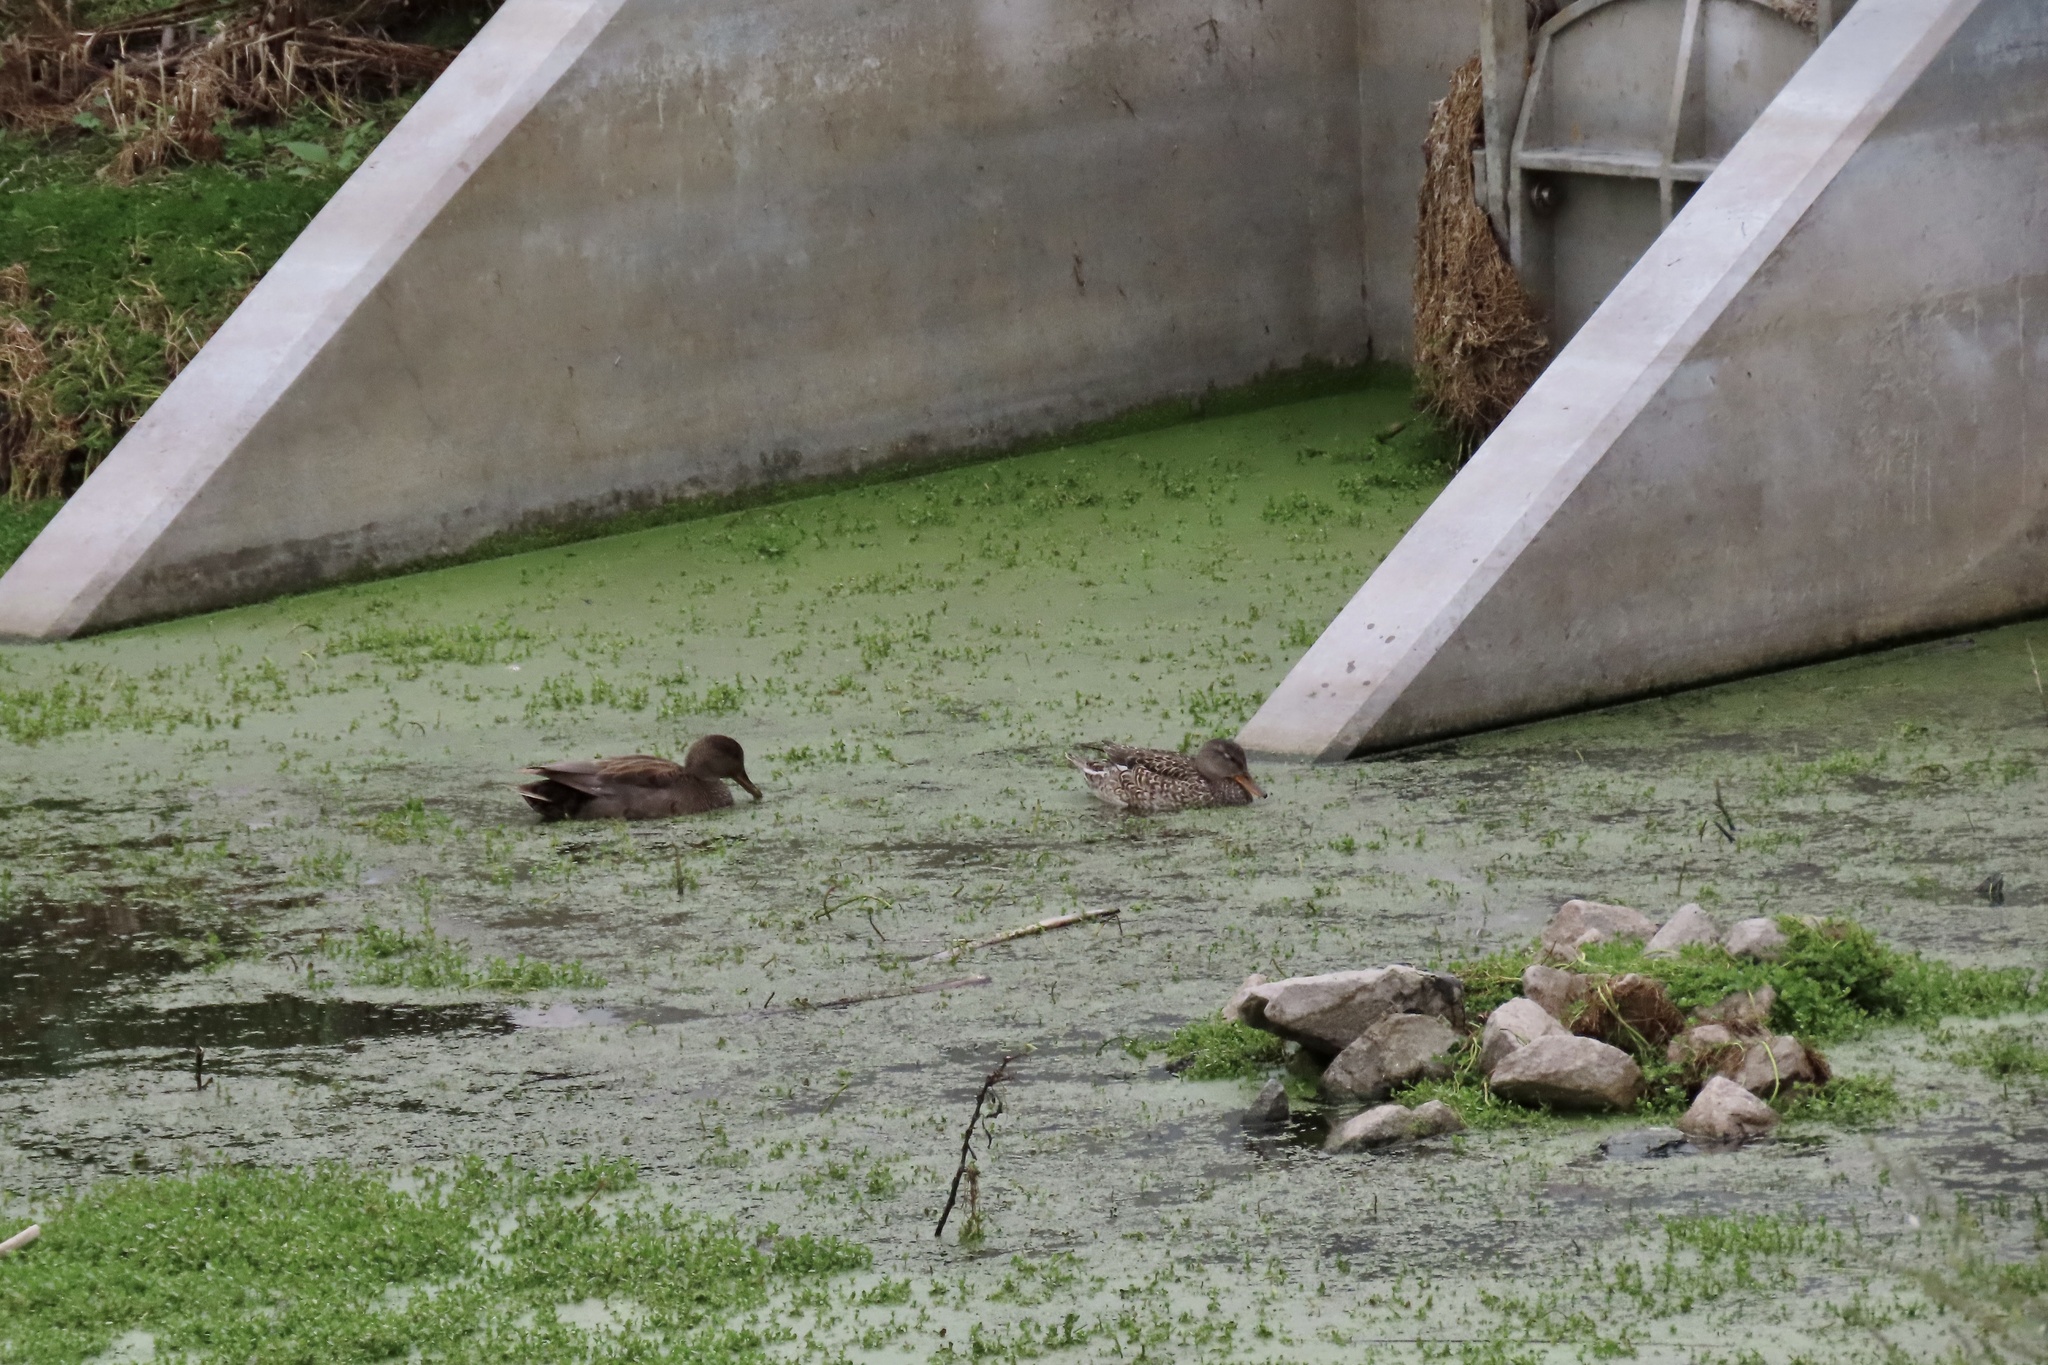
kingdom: Animalia
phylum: Chordata
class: Aves
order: Anseriformes
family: Anatidae
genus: Mareca
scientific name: Mareca strepera
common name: Gadwall
